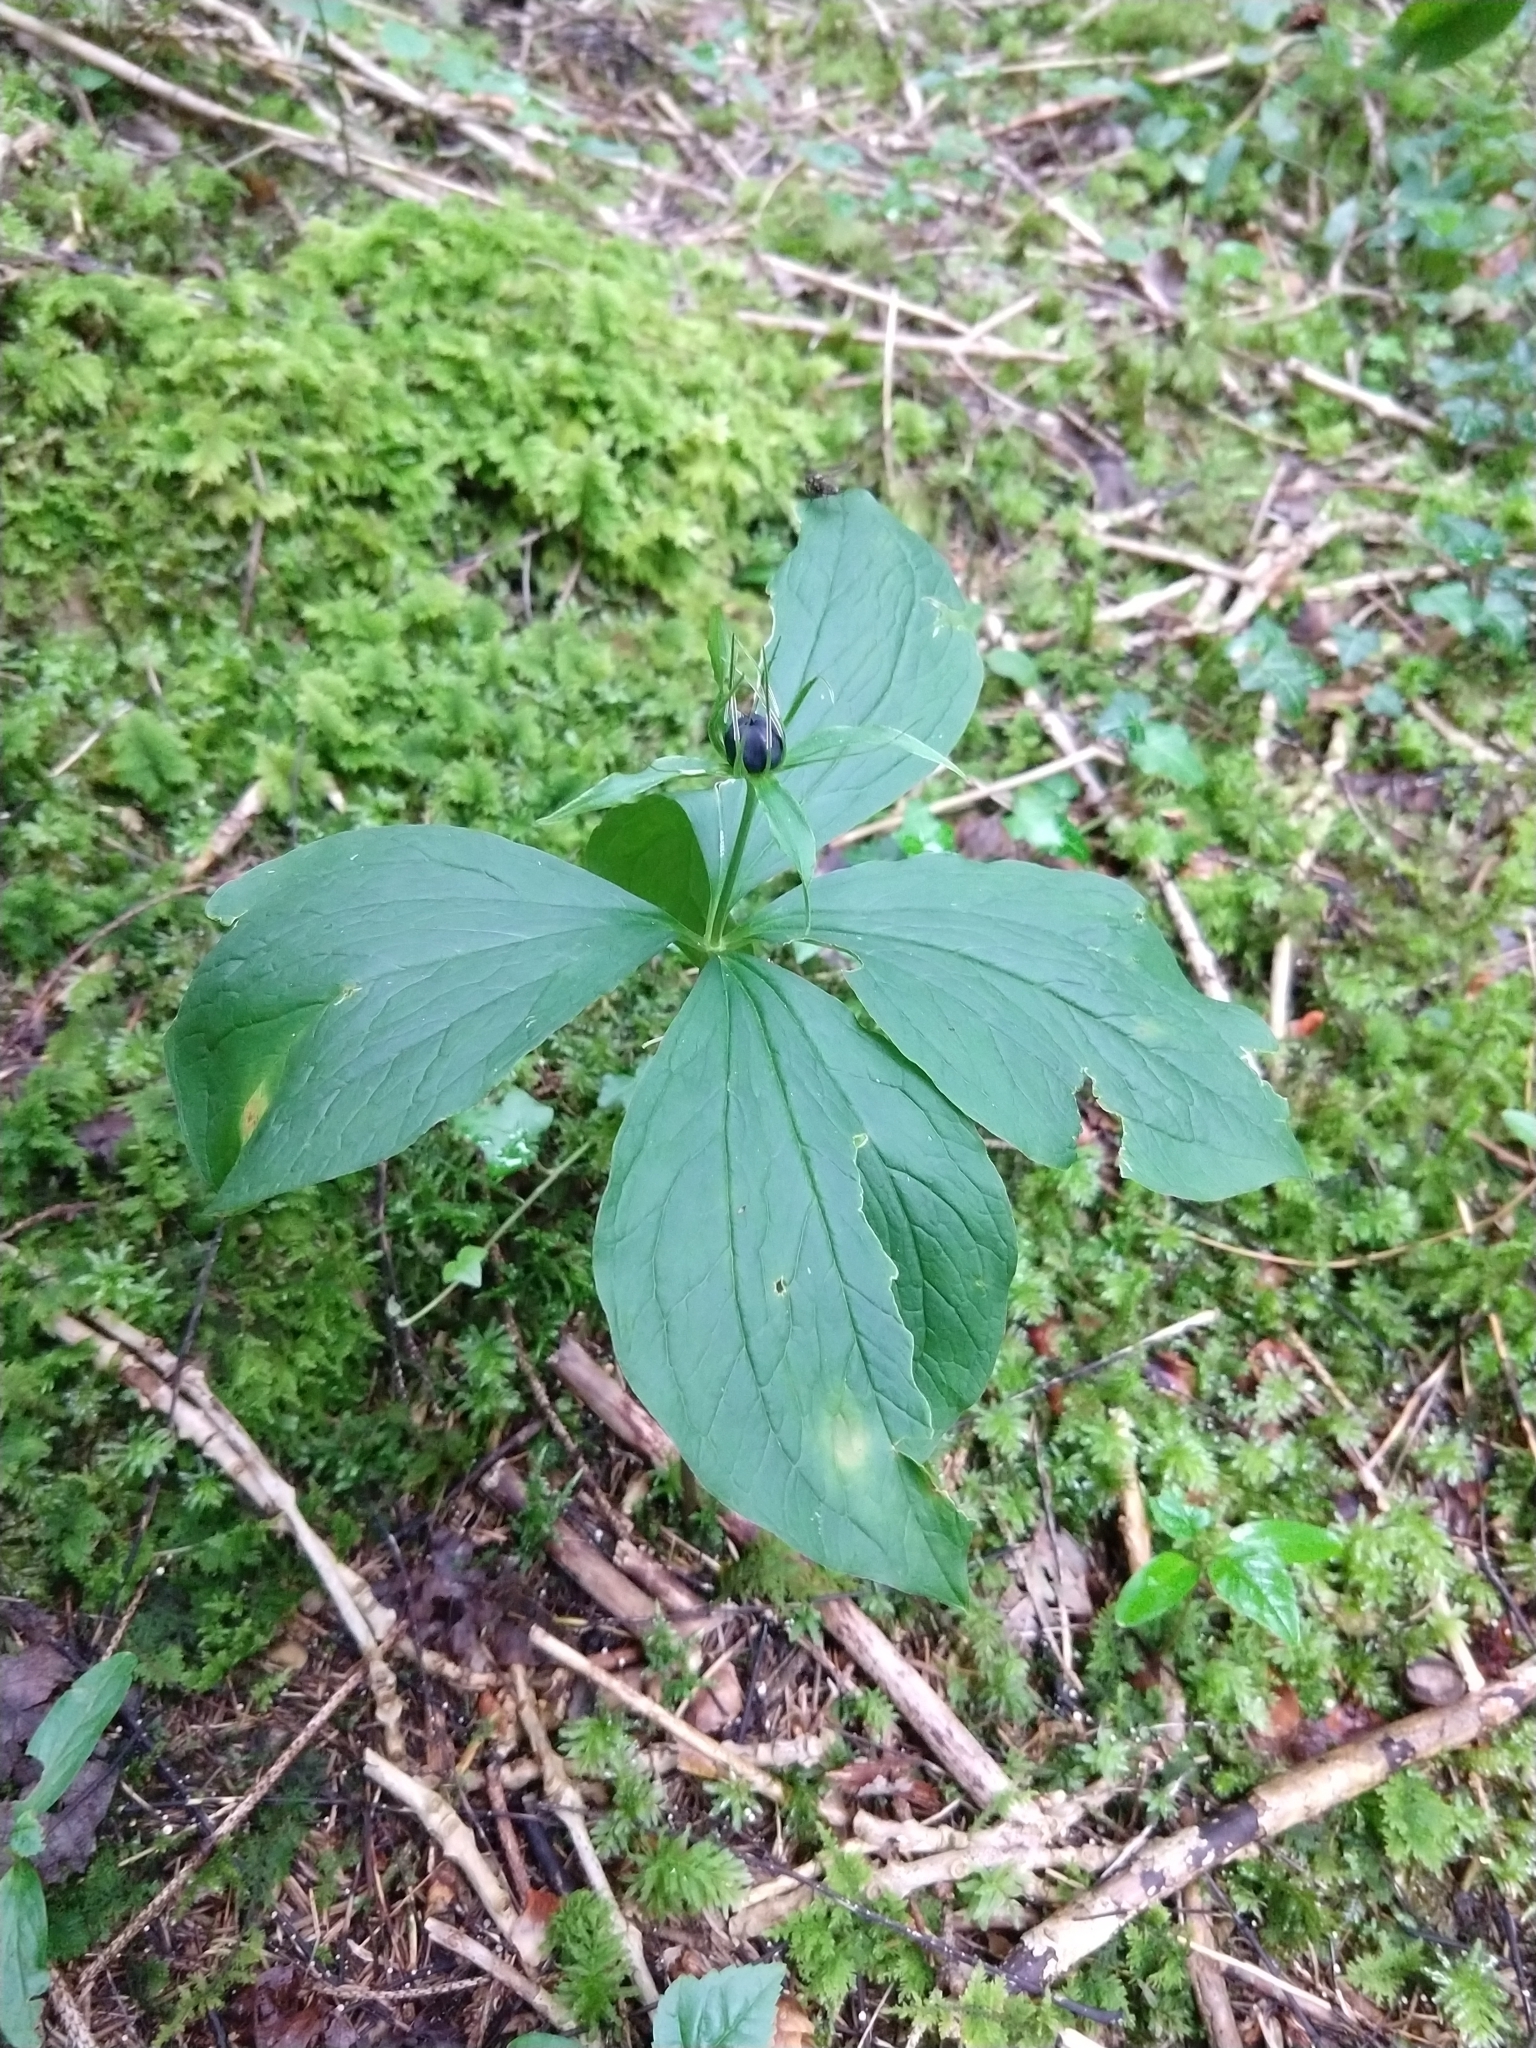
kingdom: Plantae
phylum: Tracheophyta
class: Liliopsida
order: Liliales
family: Melanthiaceae
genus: Paris
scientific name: Paris quadrifolia
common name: Herb-paris
